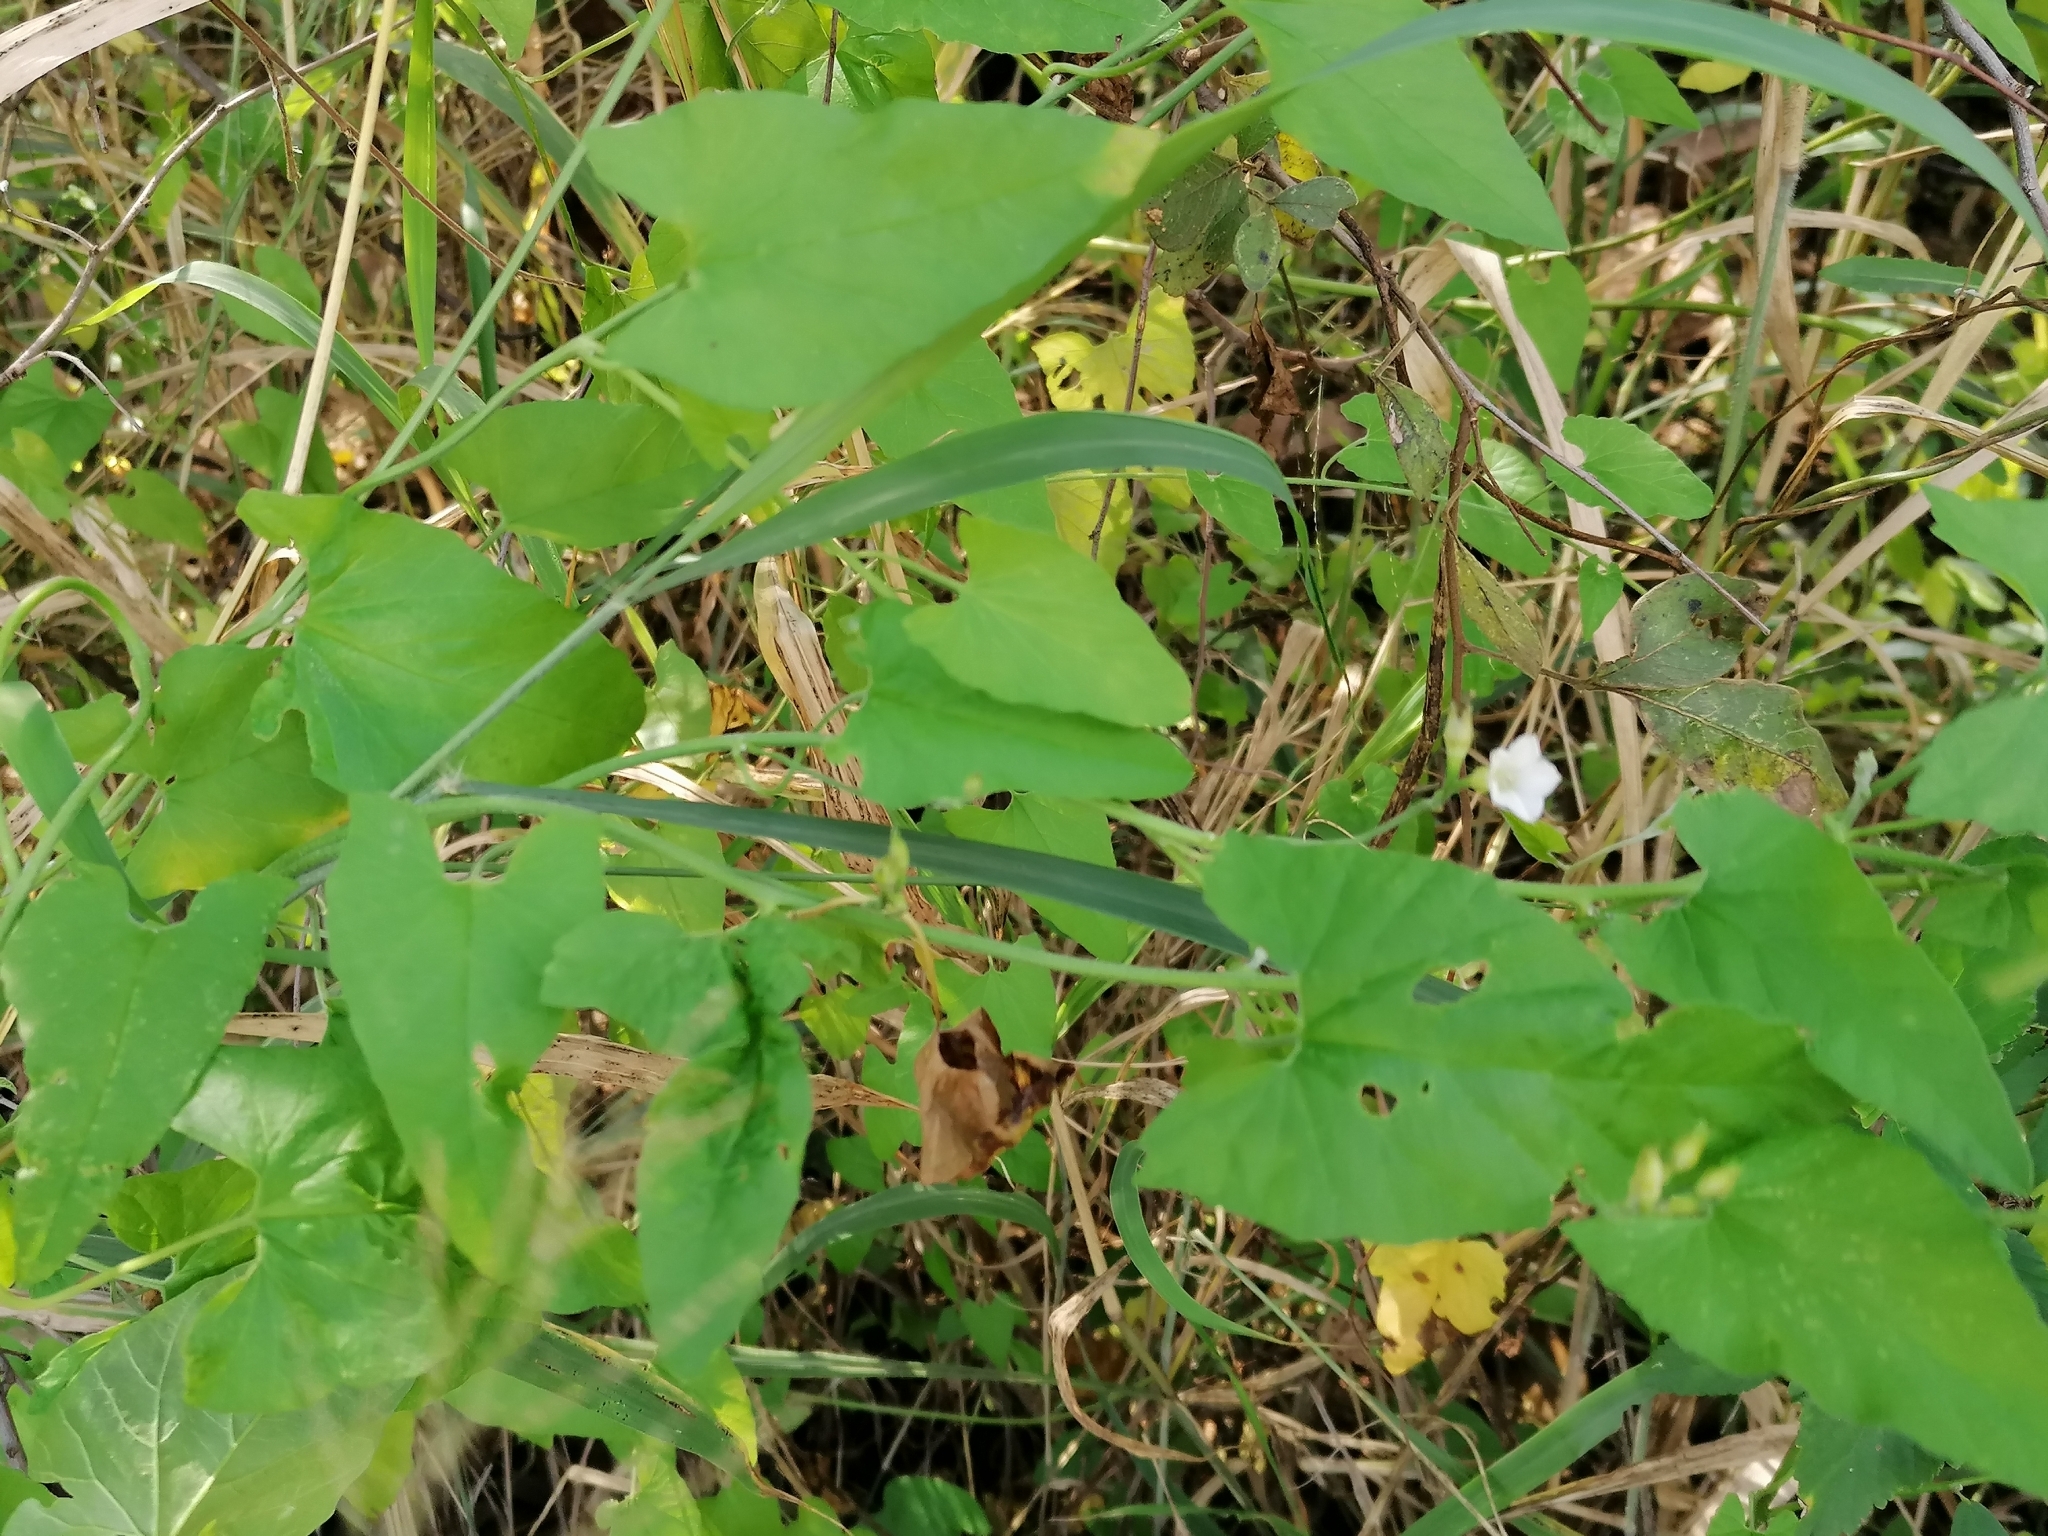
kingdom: Plantae
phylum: Tracheophyta
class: Magnoliopsida
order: Solanales
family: Convolvulaceae
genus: Convolvulus
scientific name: Convolvulus sagittatus
